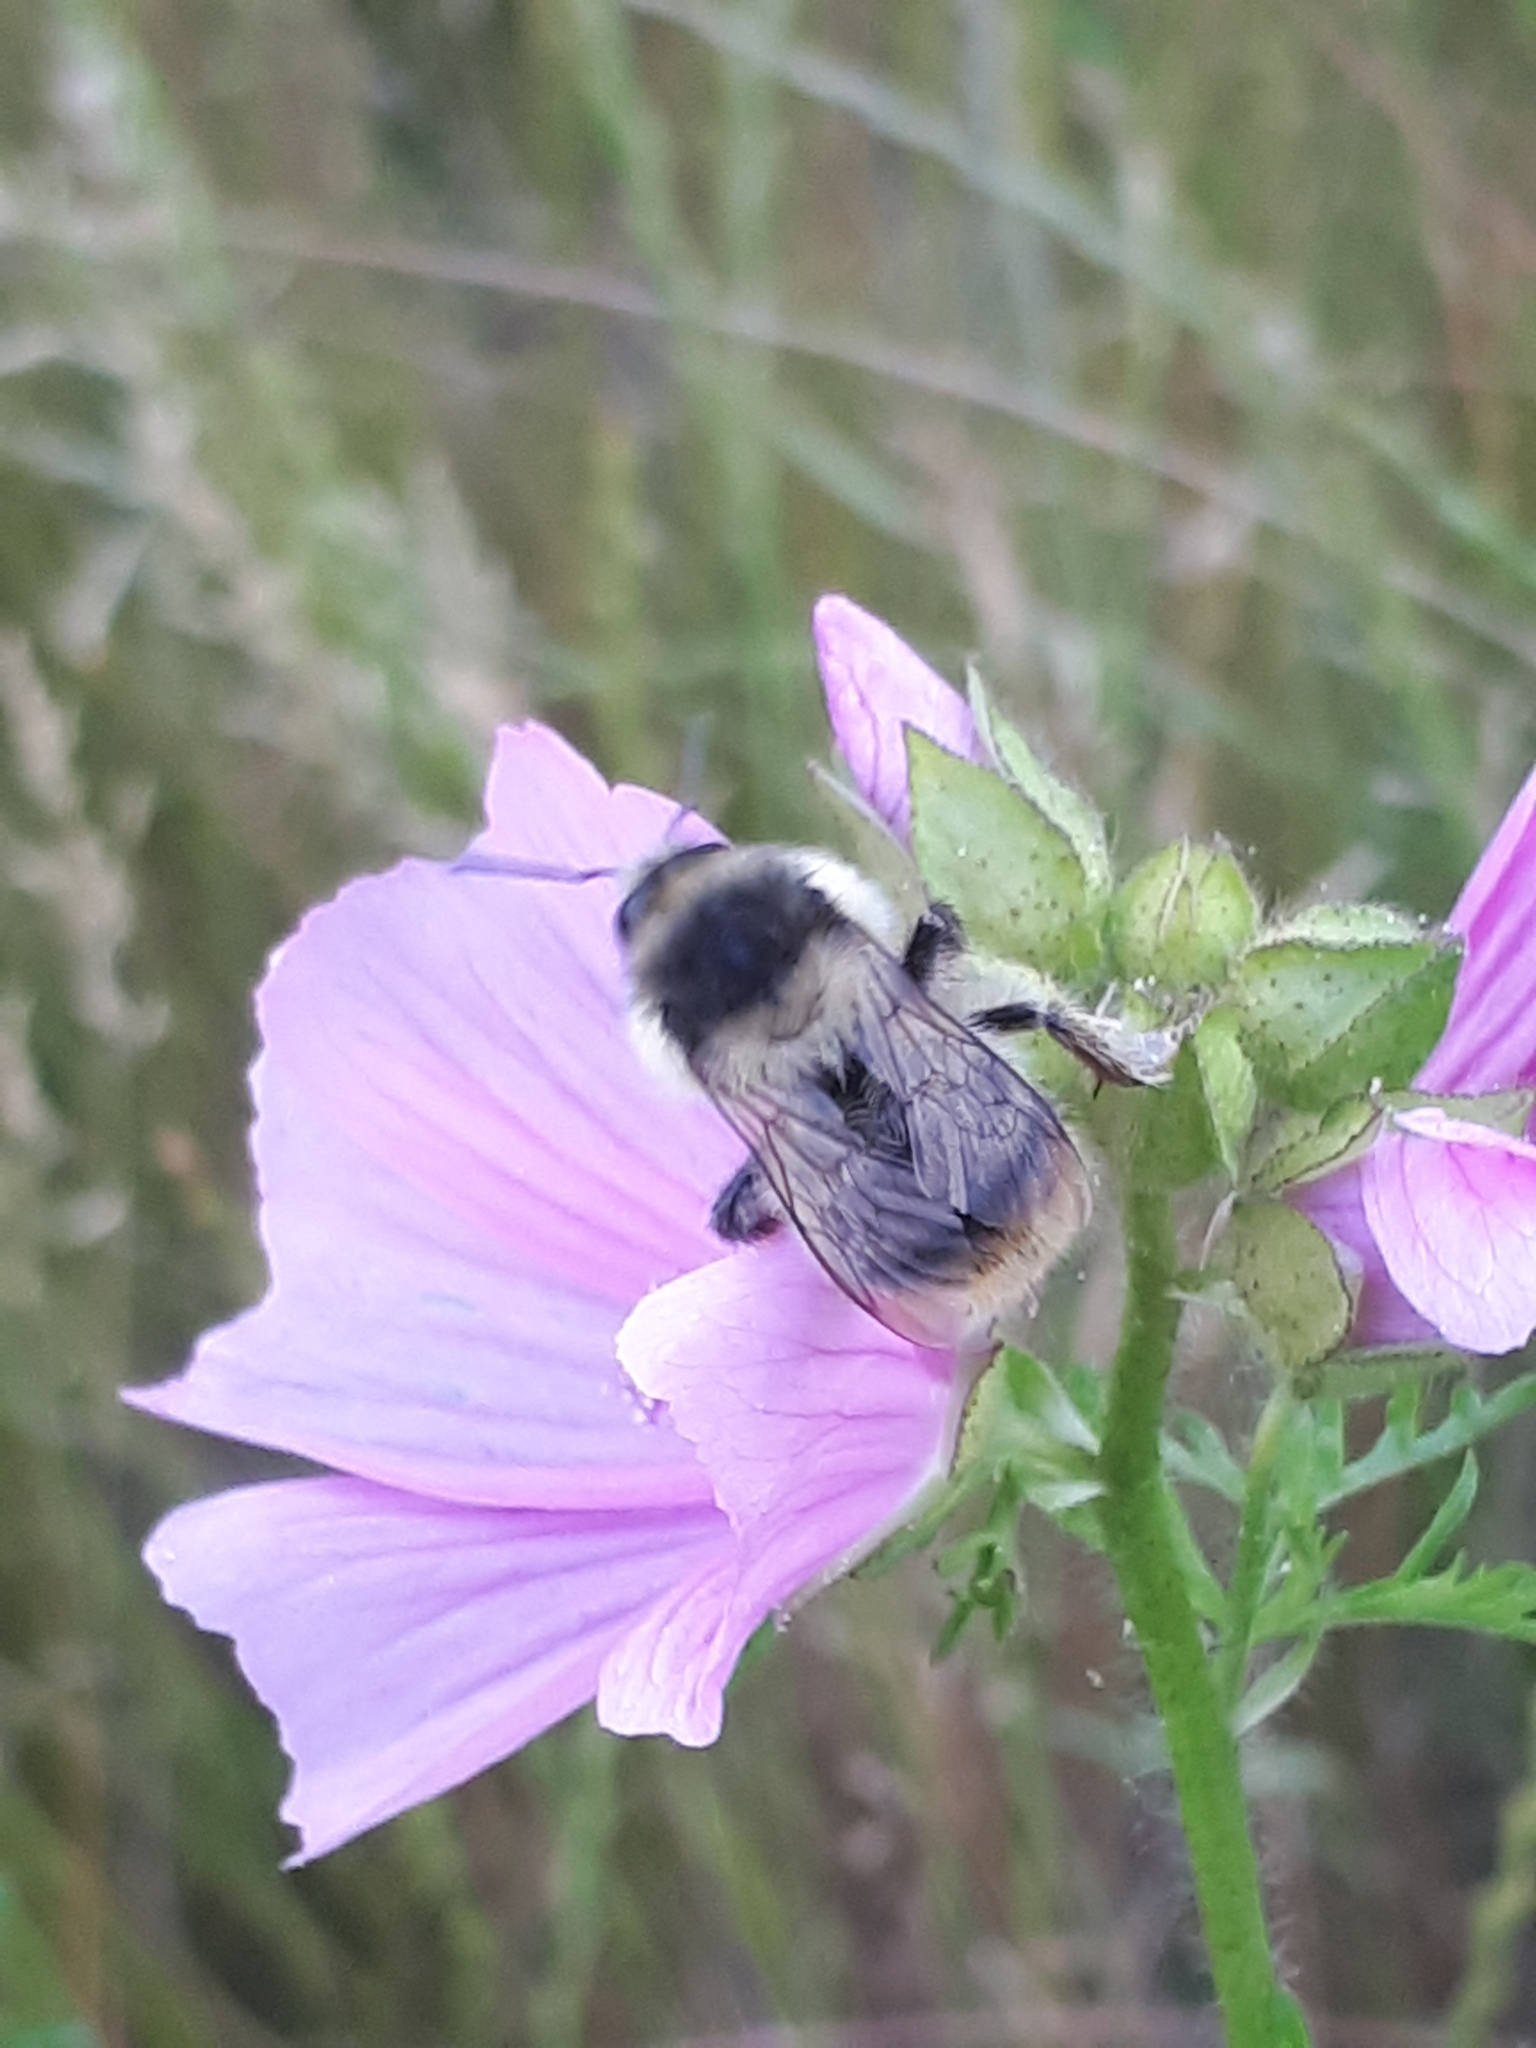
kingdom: Animalia
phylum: Arthropoda
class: Insecta
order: Hymenoptera
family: Apidae
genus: Bombus
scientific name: Bombus sylvarum
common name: Shrill carder bee
